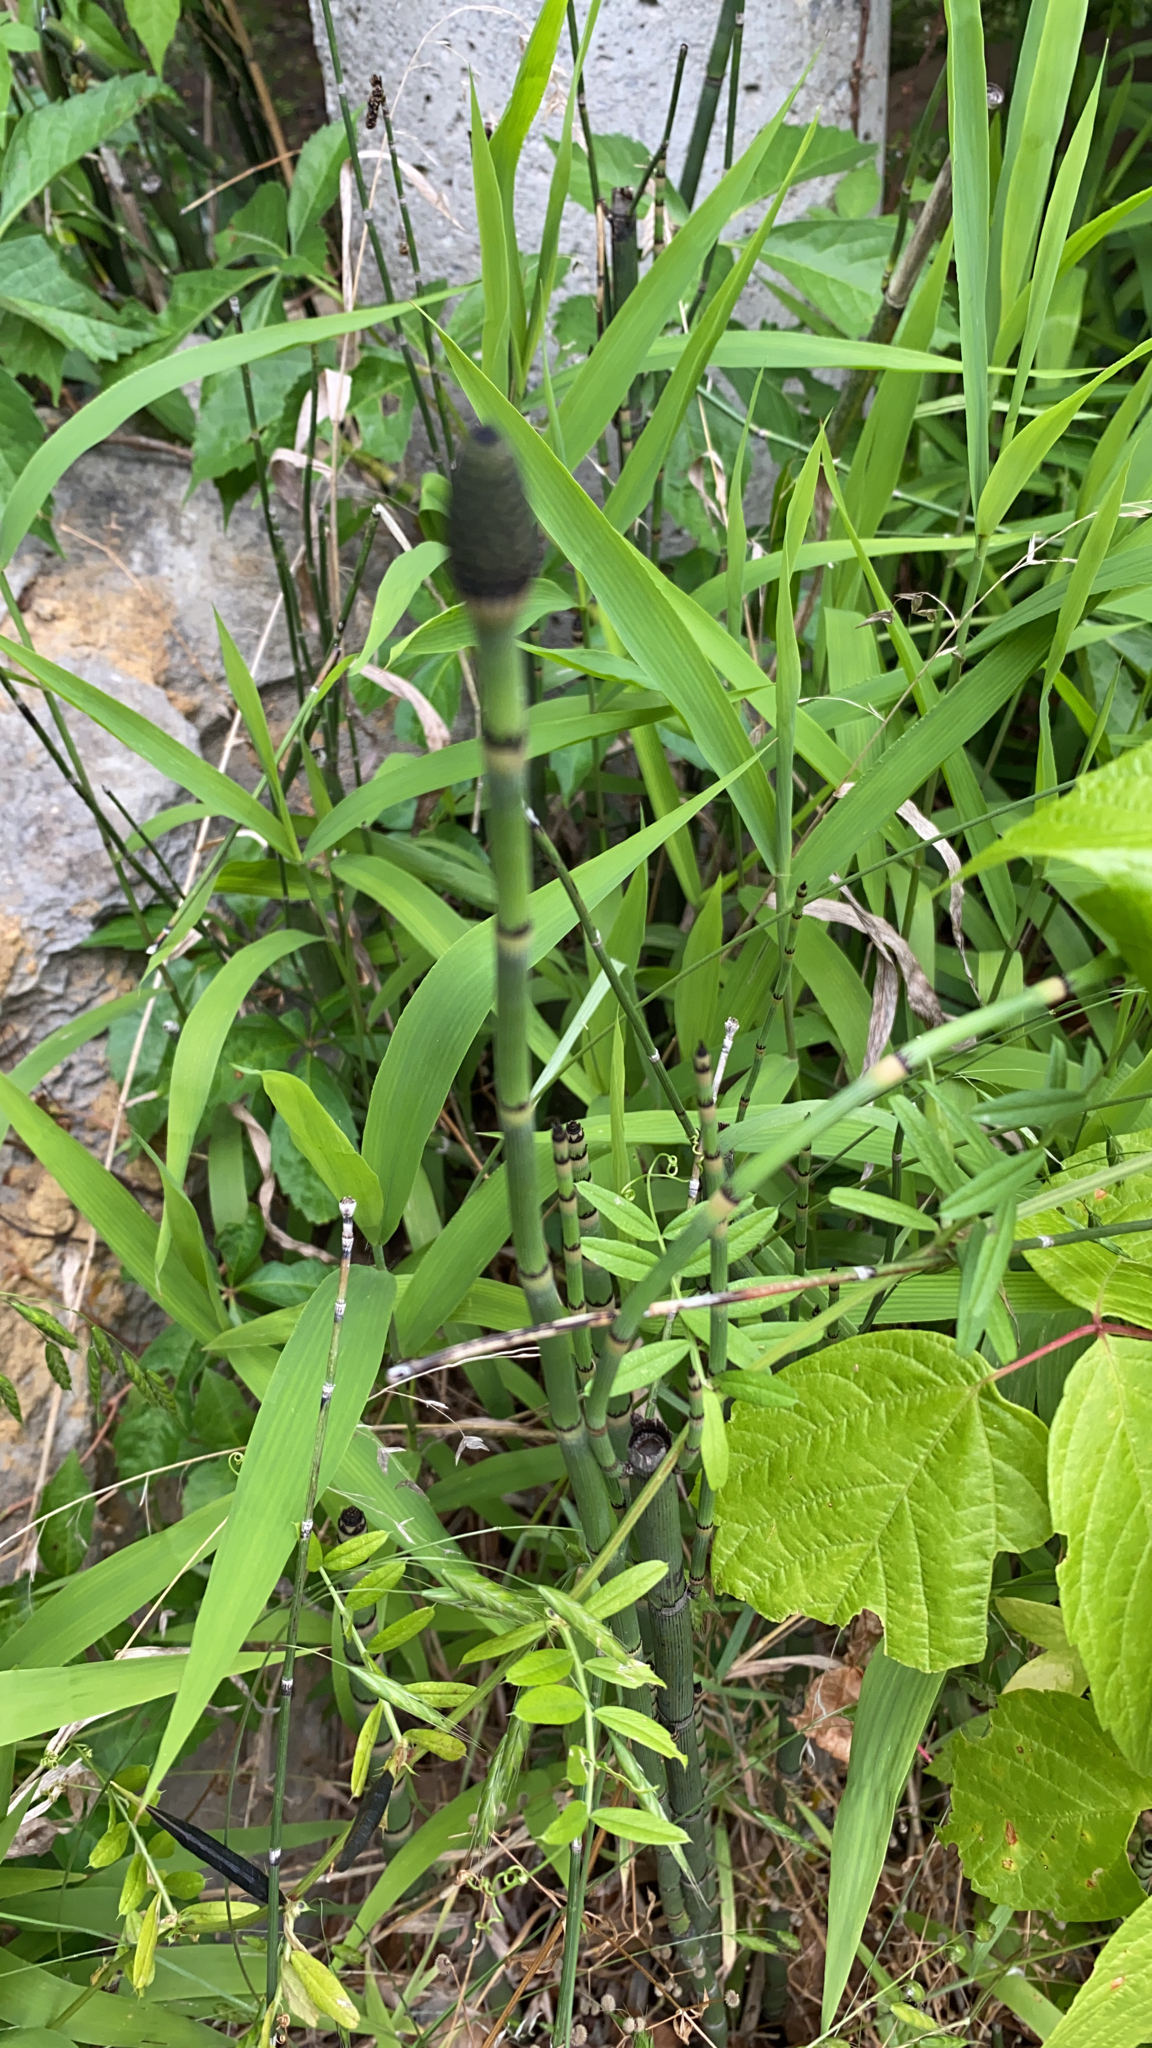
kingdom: Plantae
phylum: Tracheophyta
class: Polypodiopsida
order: Equisetales
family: Equisetaceae
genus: Equisetum
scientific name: Equisetum hyemale
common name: Rough horsetail
